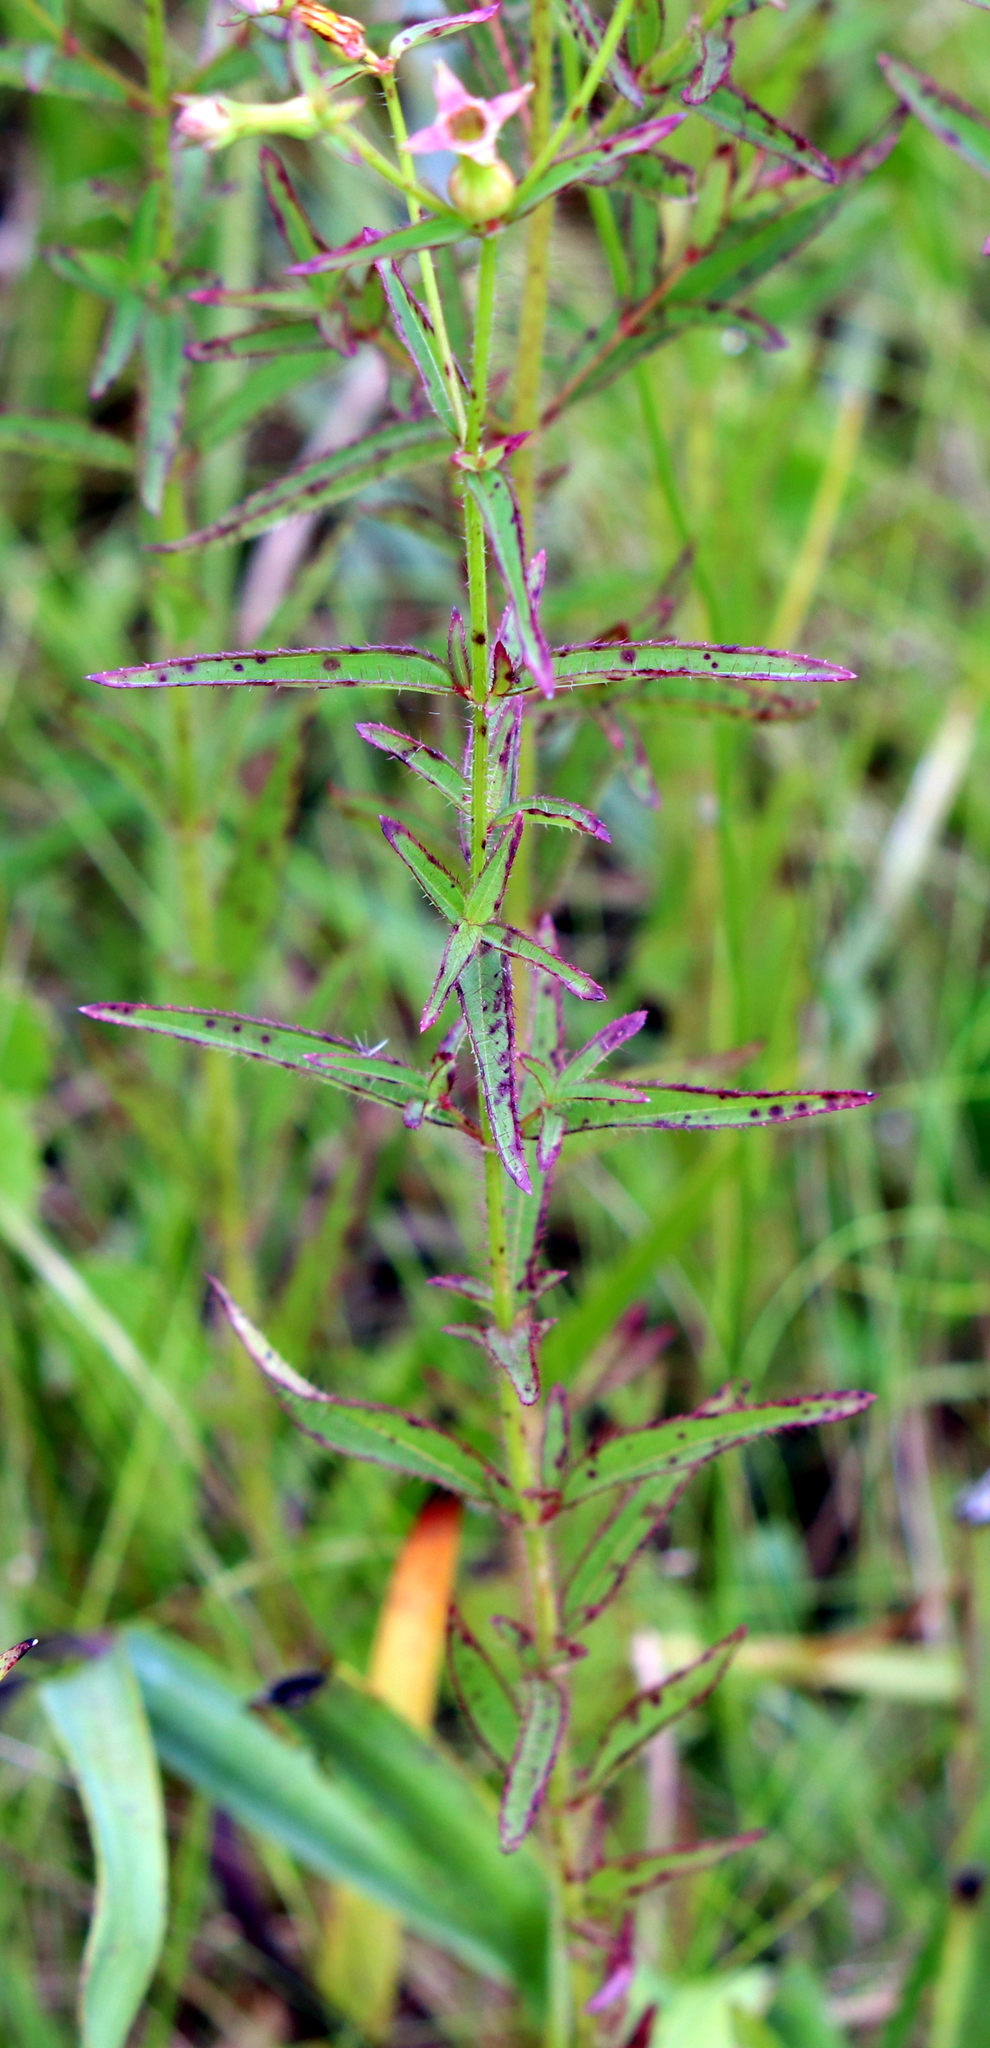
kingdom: Plantae
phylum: Tracheophyta
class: Magnoliopsida
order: Myrtales
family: Melastomataceae
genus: Rhexia
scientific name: Rhexia nashii
